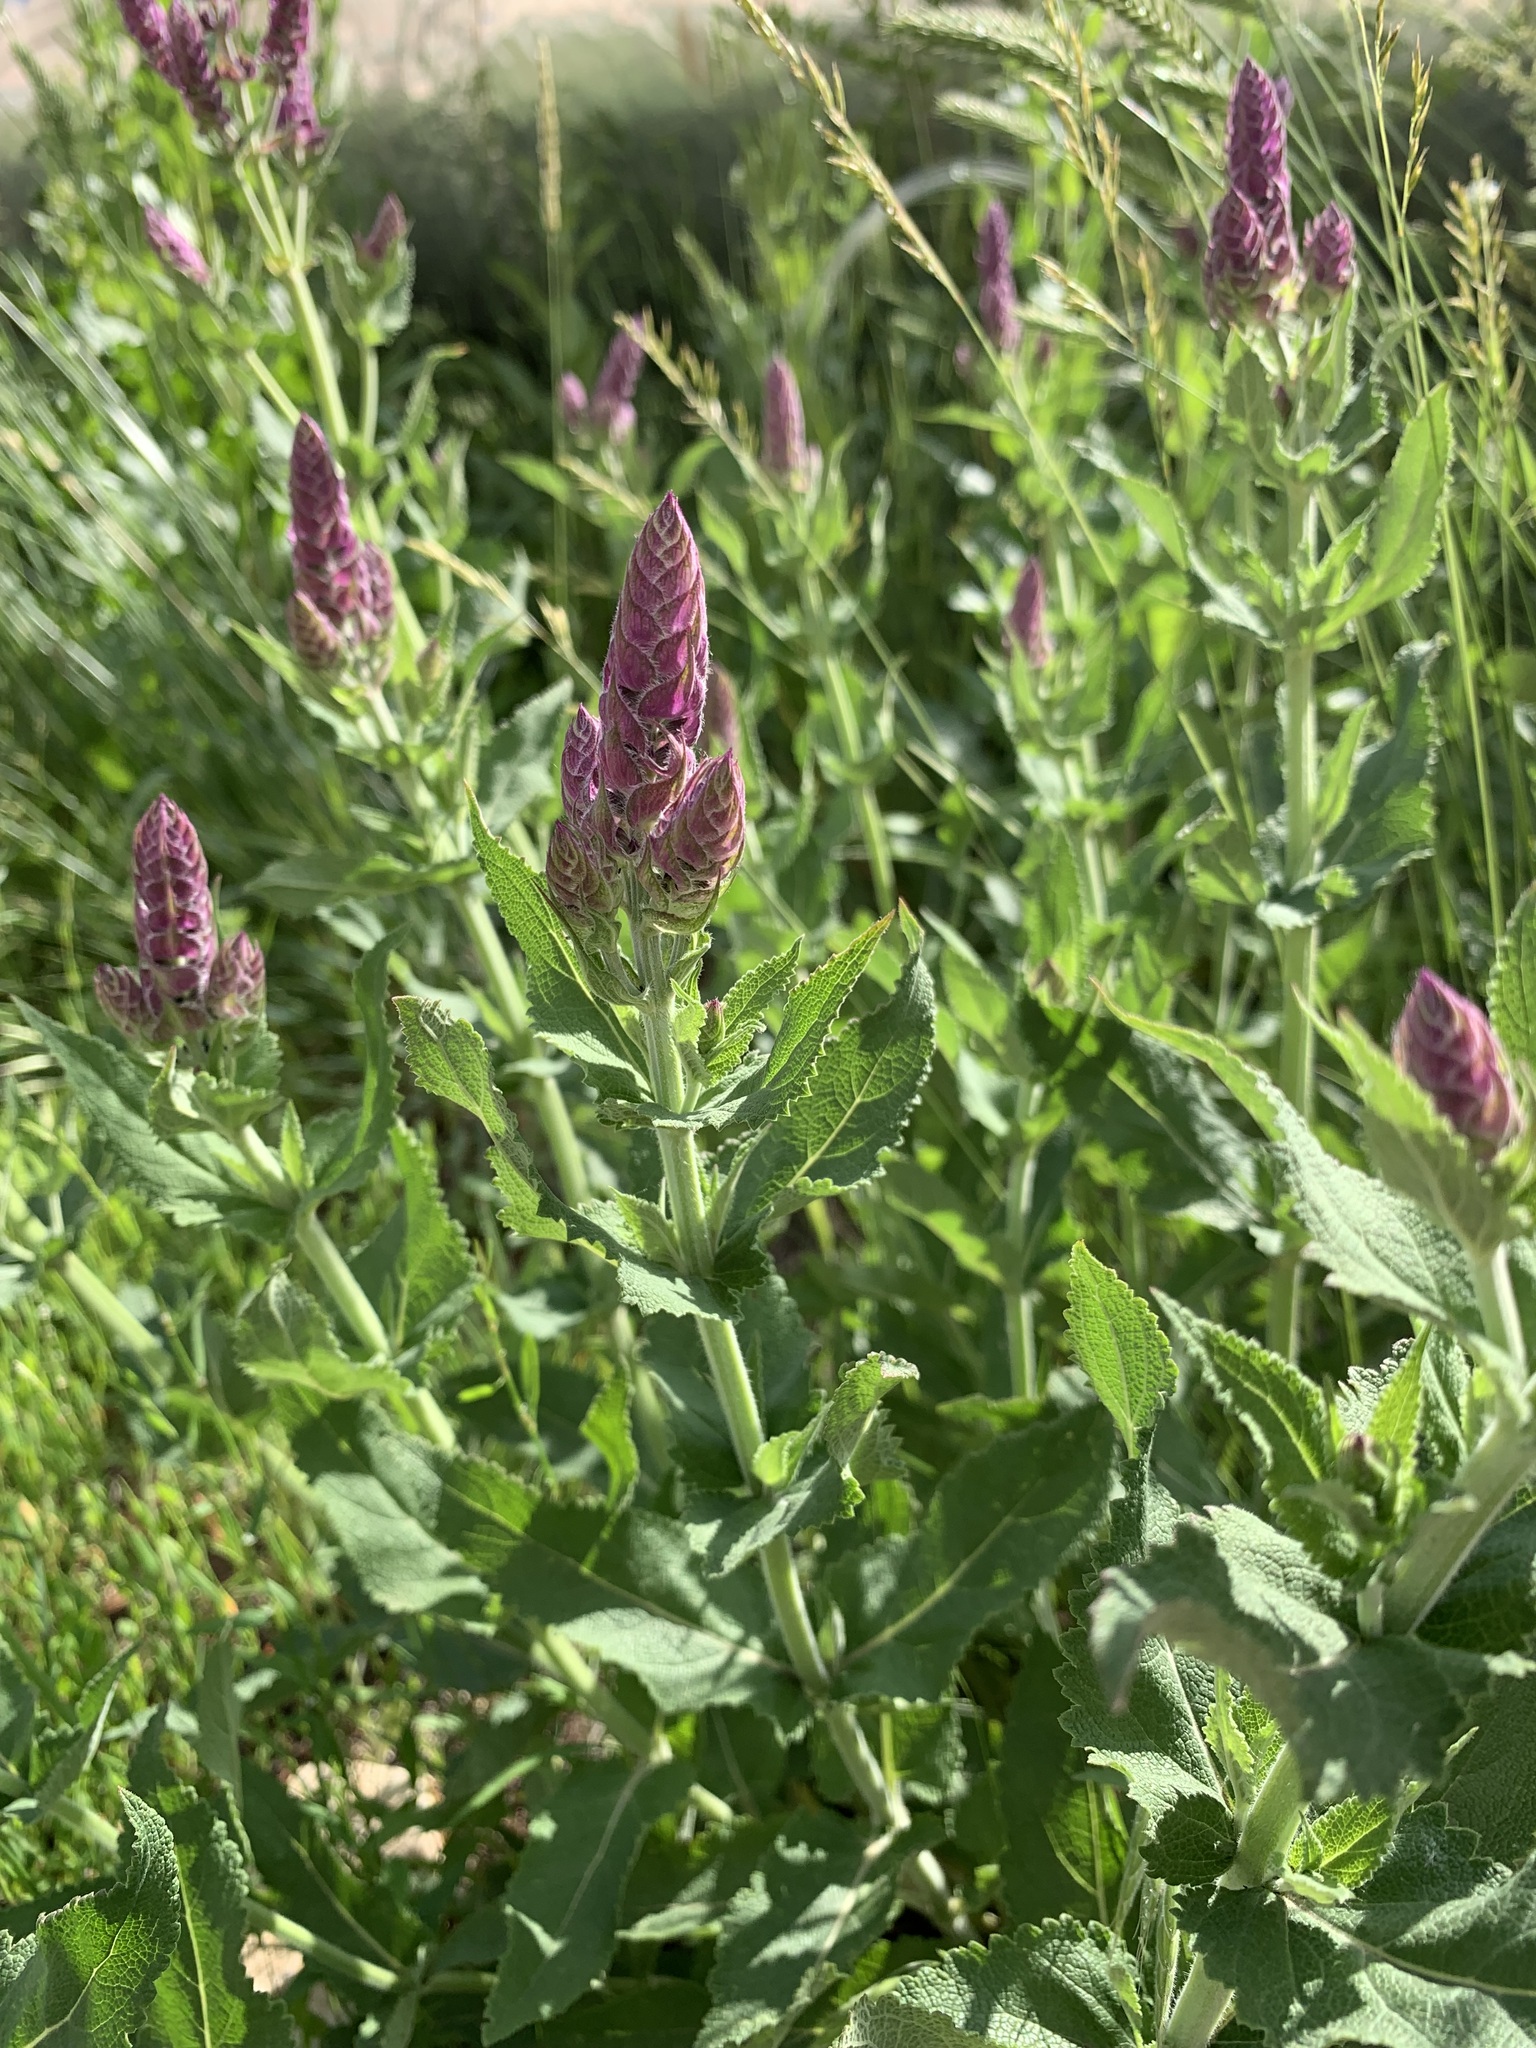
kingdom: Plantae
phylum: Tracheophyta
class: Magnoliopsida
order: Lamiales
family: Lamiaceae
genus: Salvia
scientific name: Salvia nemorosa
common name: Balkan clary
